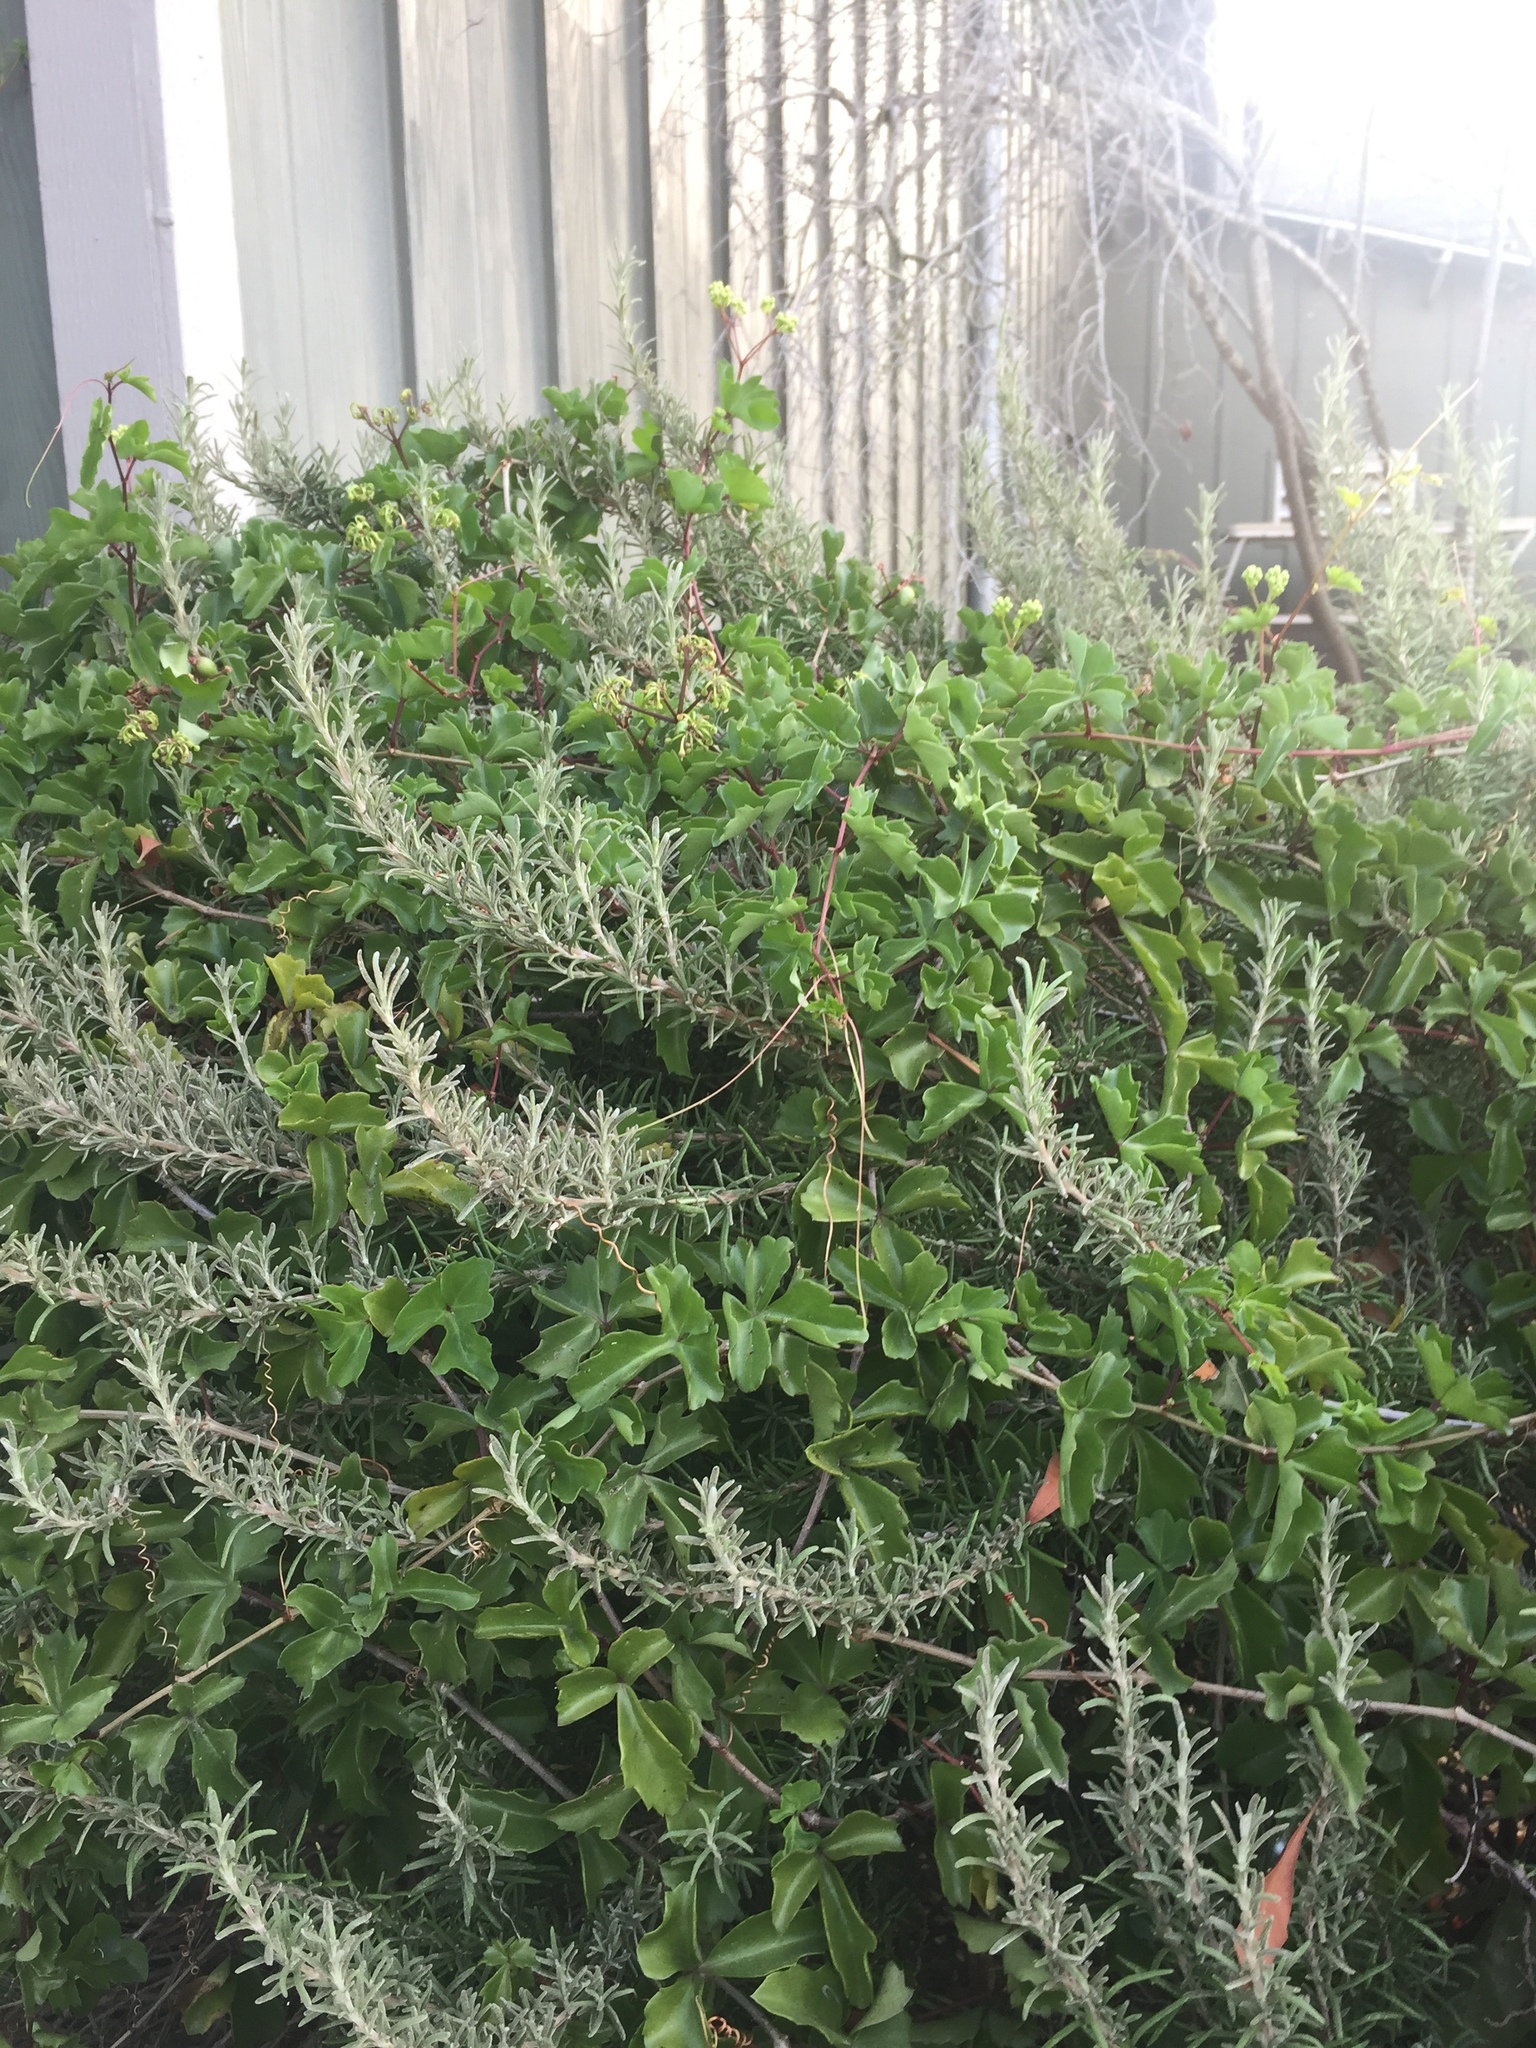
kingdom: Plantae
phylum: Tracheophyta
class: Magnoliopsida
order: Vitales
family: Vitaceae
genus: Cissus
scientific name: Cissus trifoliata
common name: Vine-sorrel
